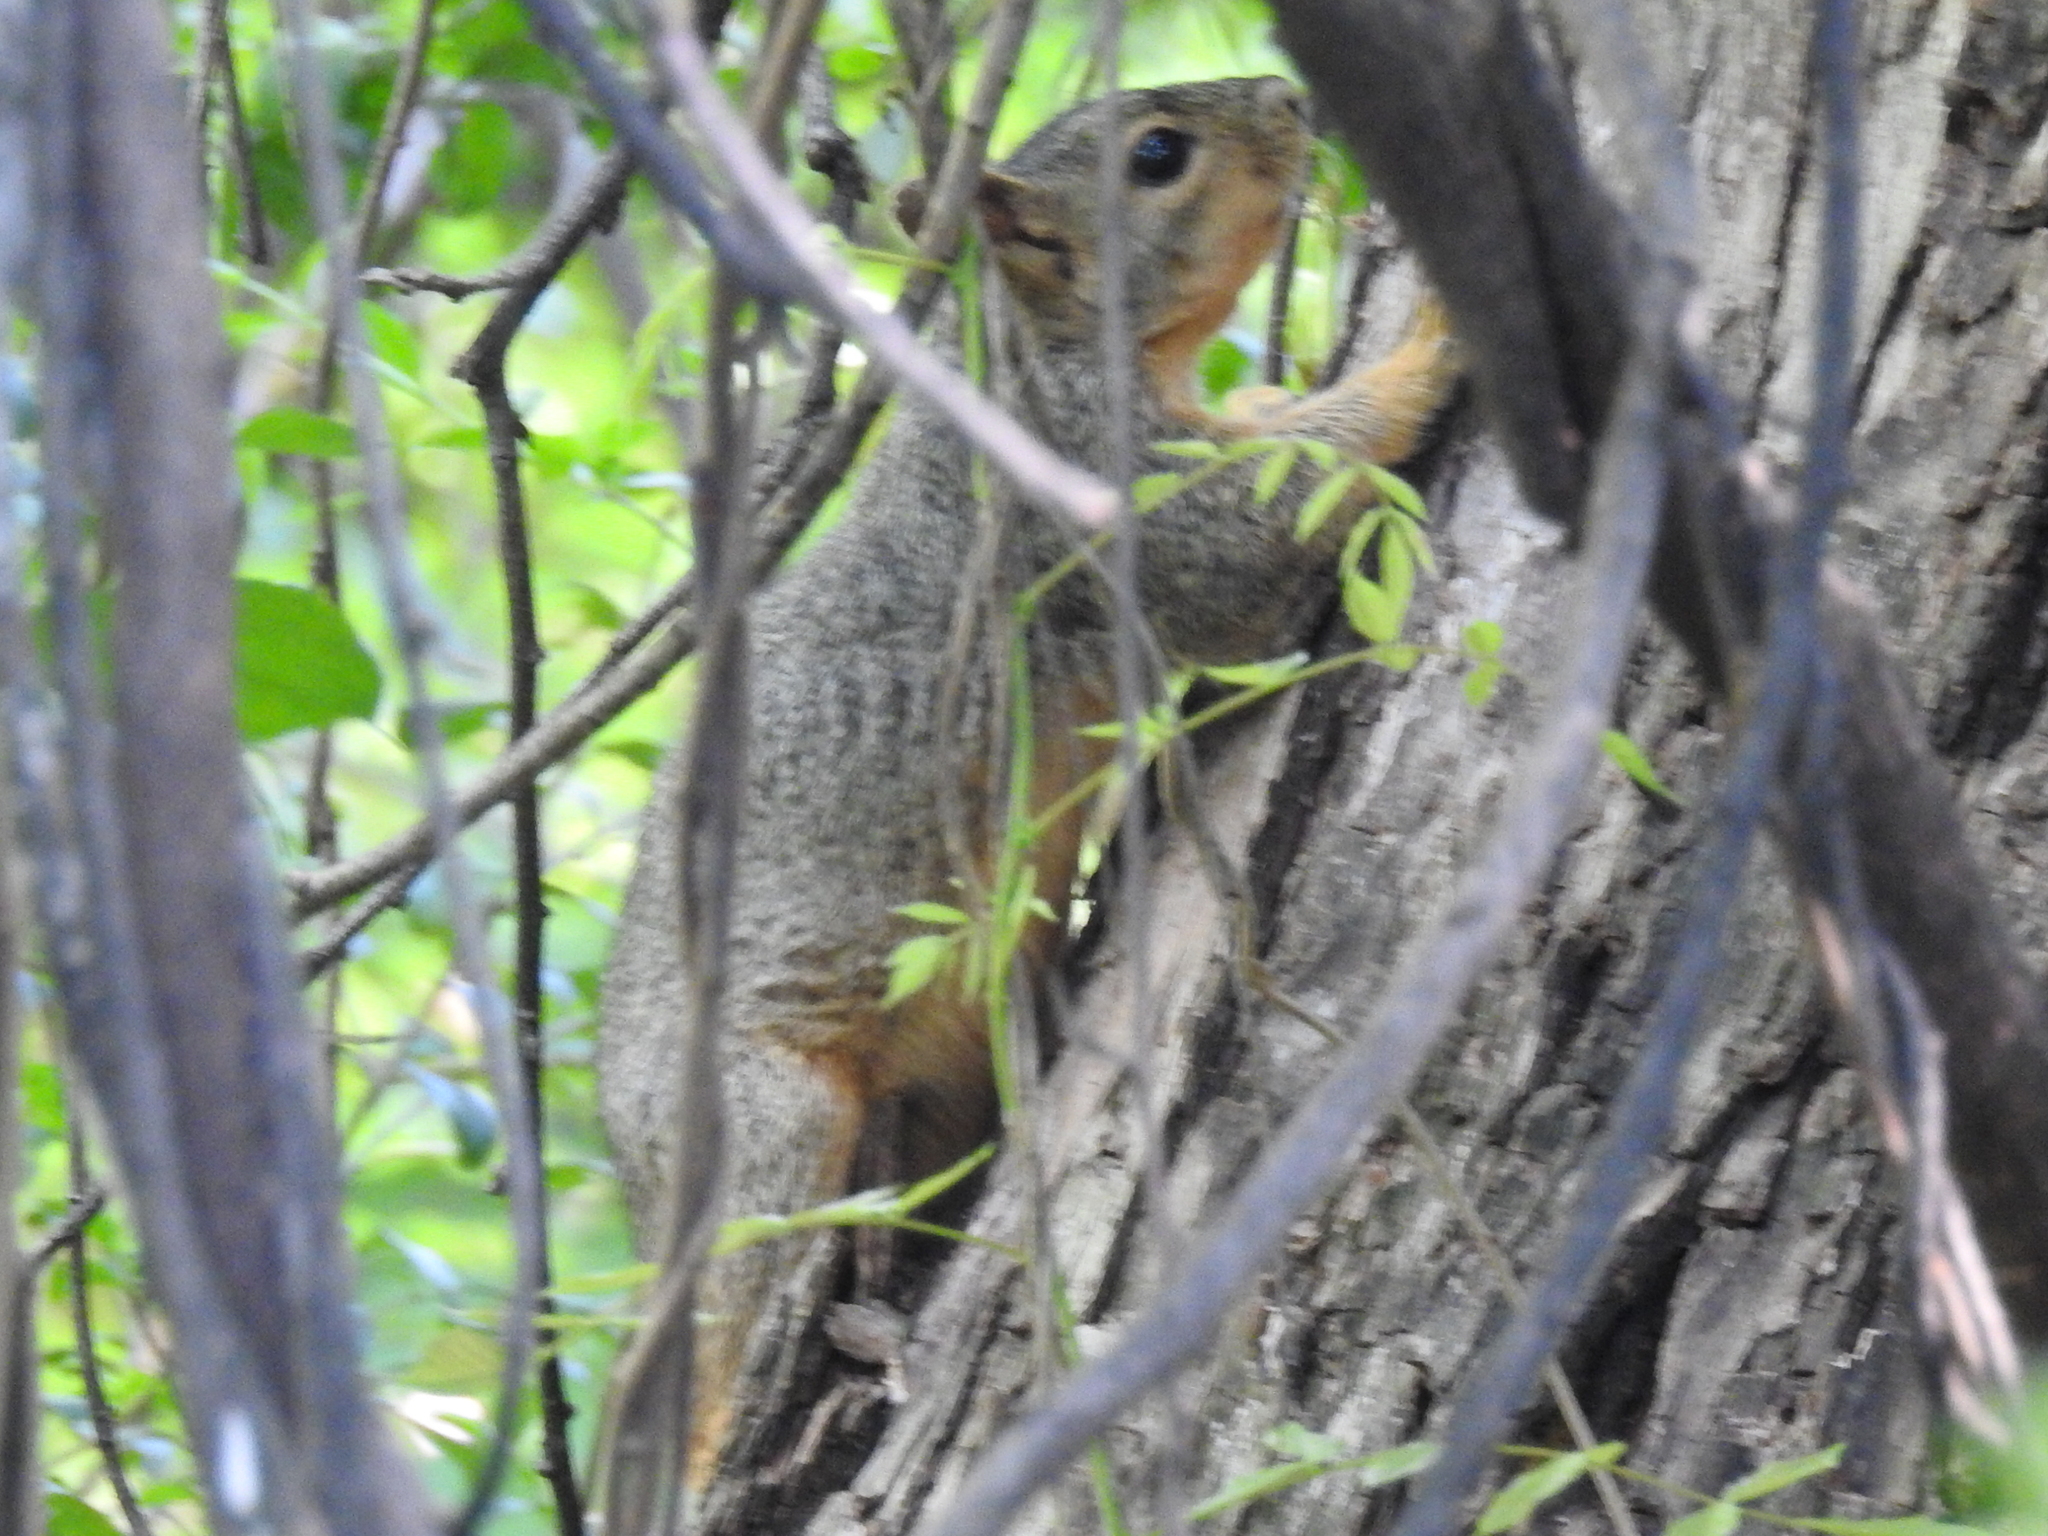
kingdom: Animalia
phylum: Chordata
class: Mammalia
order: Rodentia
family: Sciuridae
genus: Sciurus
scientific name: Sciurus niger
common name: Fox squirrel
